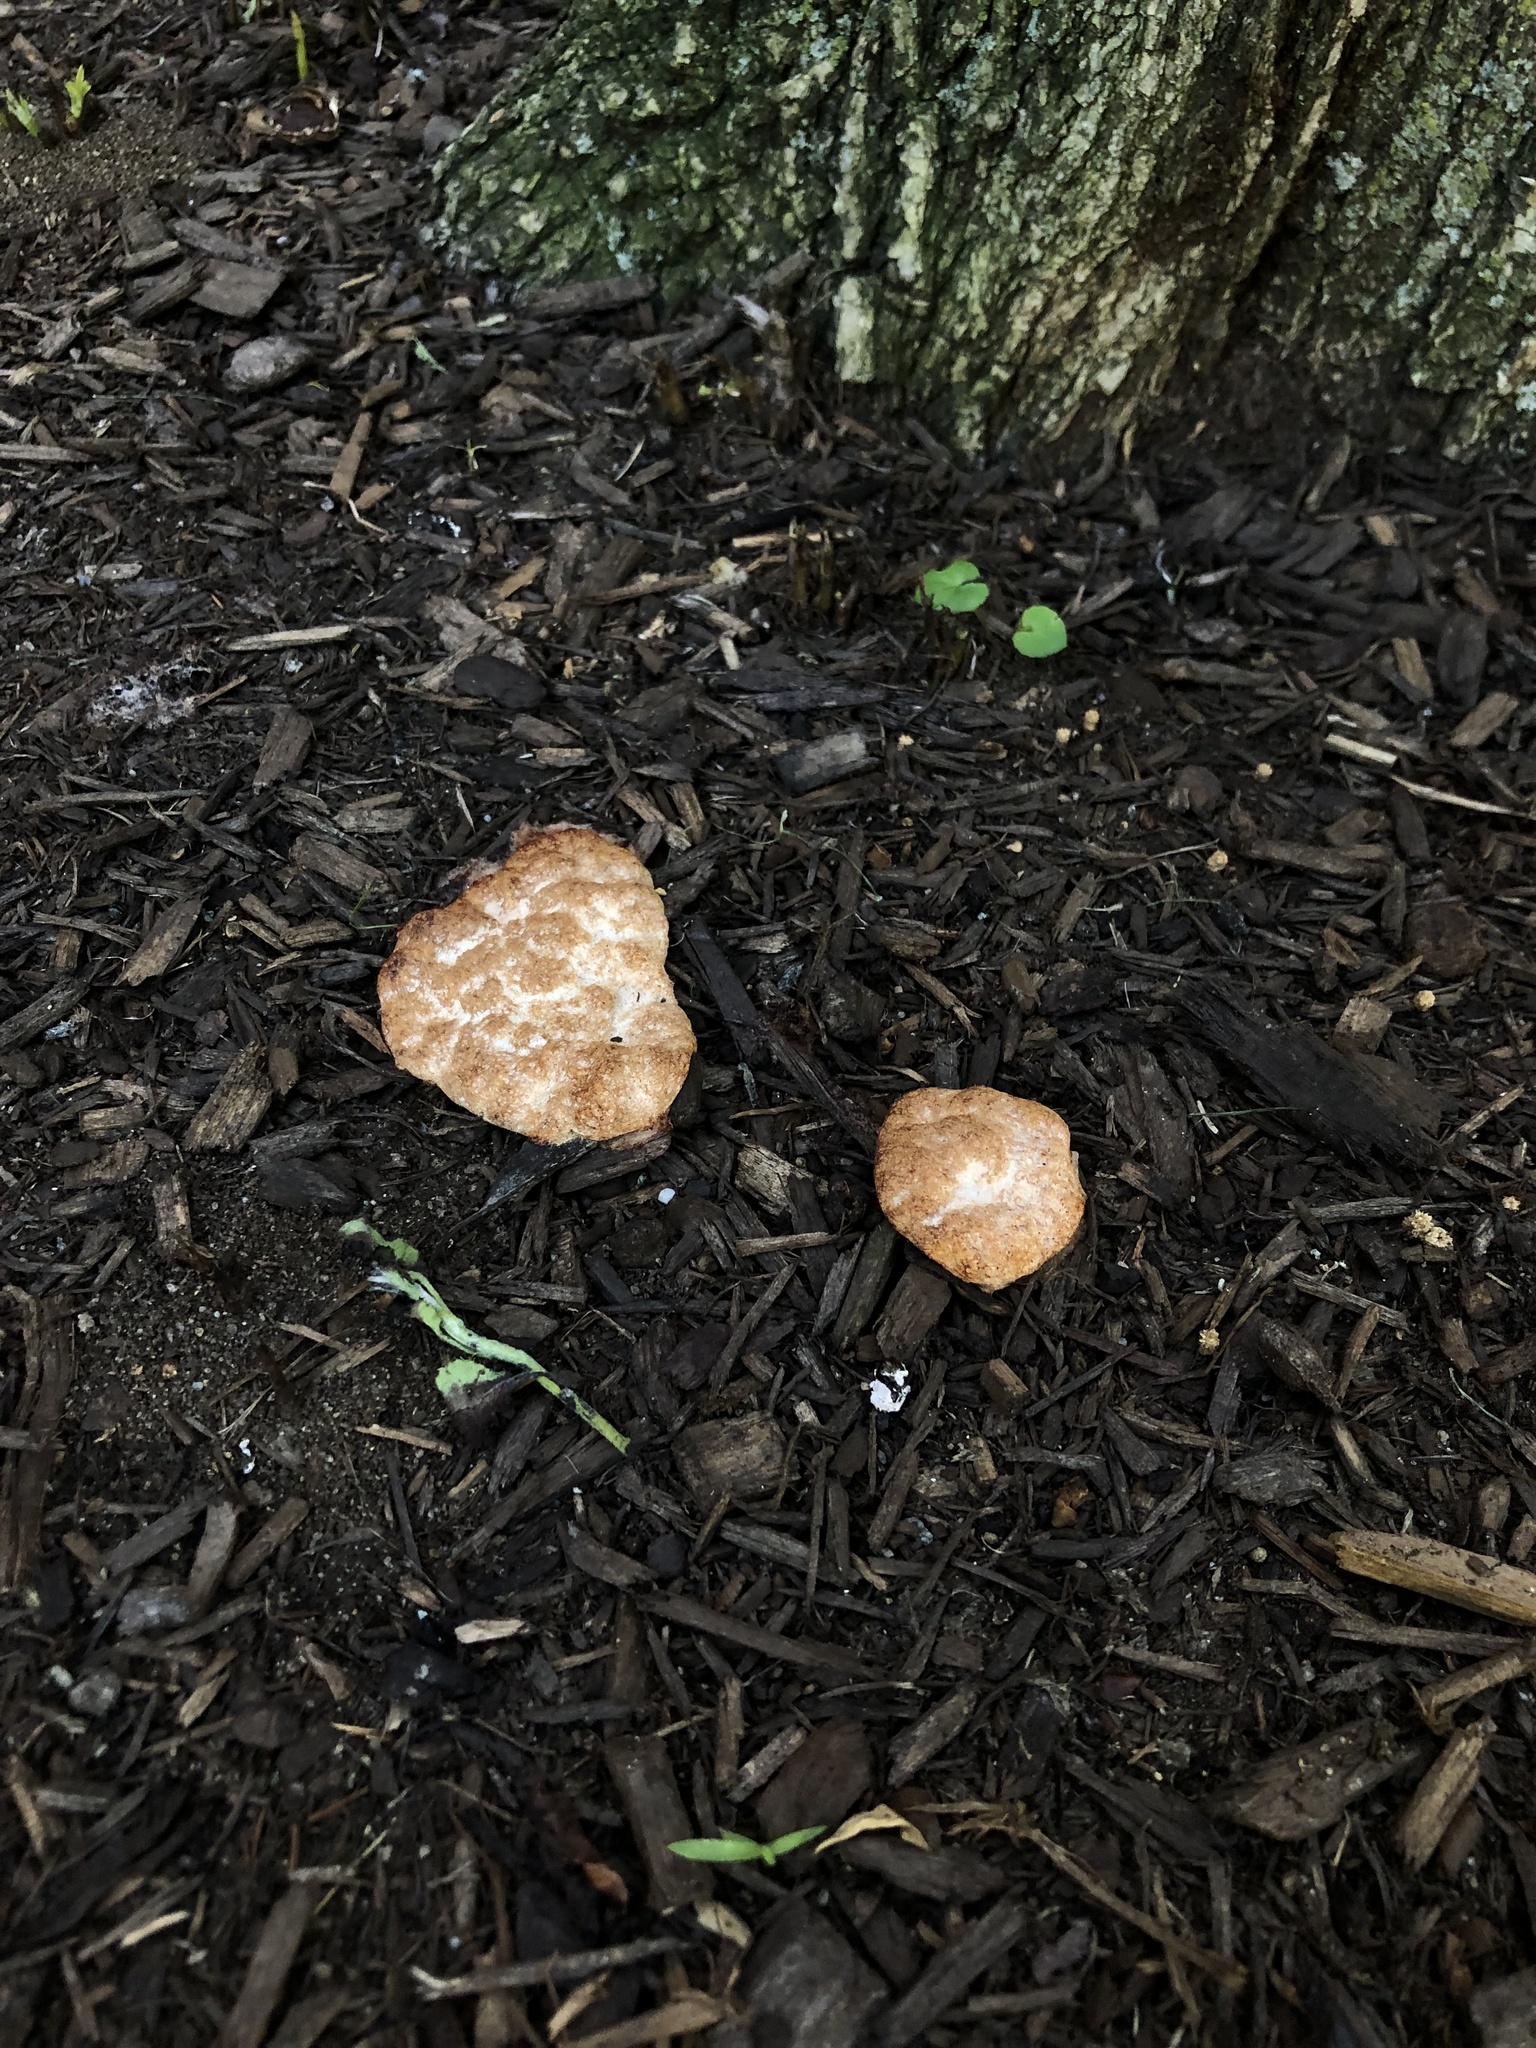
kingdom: Protozoa
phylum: Mycetozoa
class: Myxomycetes
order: Physarales
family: Physaraceae
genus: Fuligo
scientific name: Fuligo septica
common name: Dog vomit slime mold
